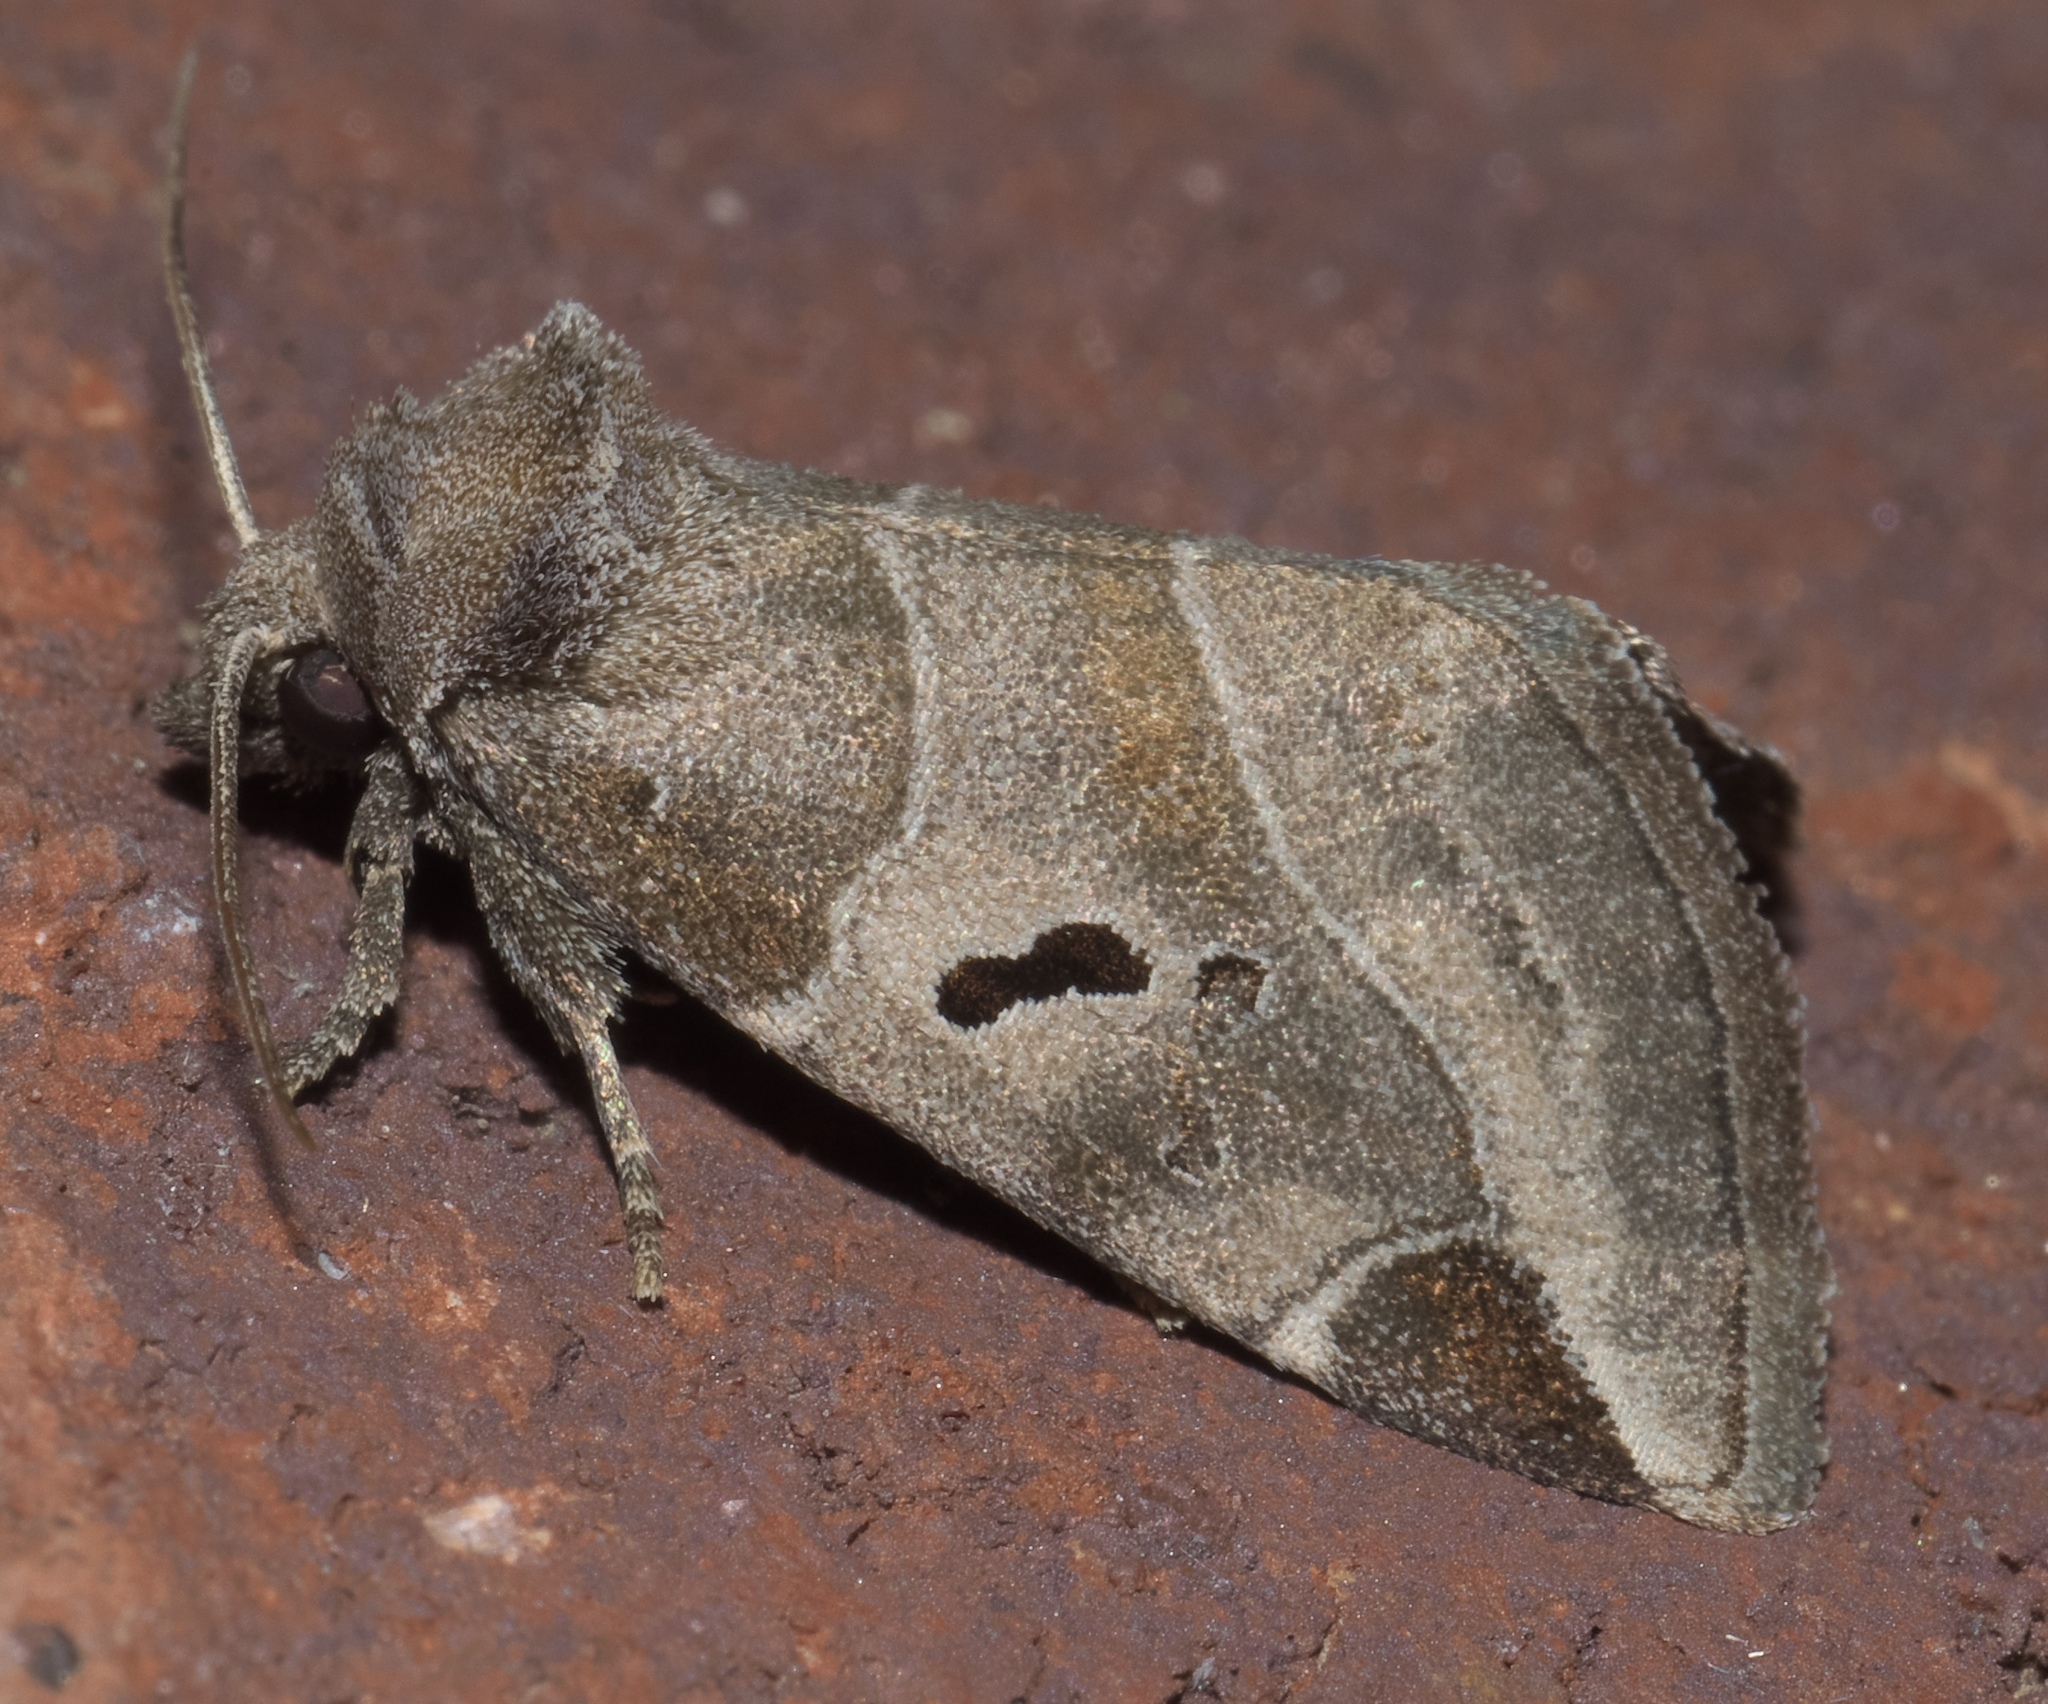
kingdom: Animalia
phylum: Arthropoda
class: Insecta
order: Lepidoptera
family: Noctuidae
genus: Plagiomimicus
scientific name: Plagiomimicus pityochromus
